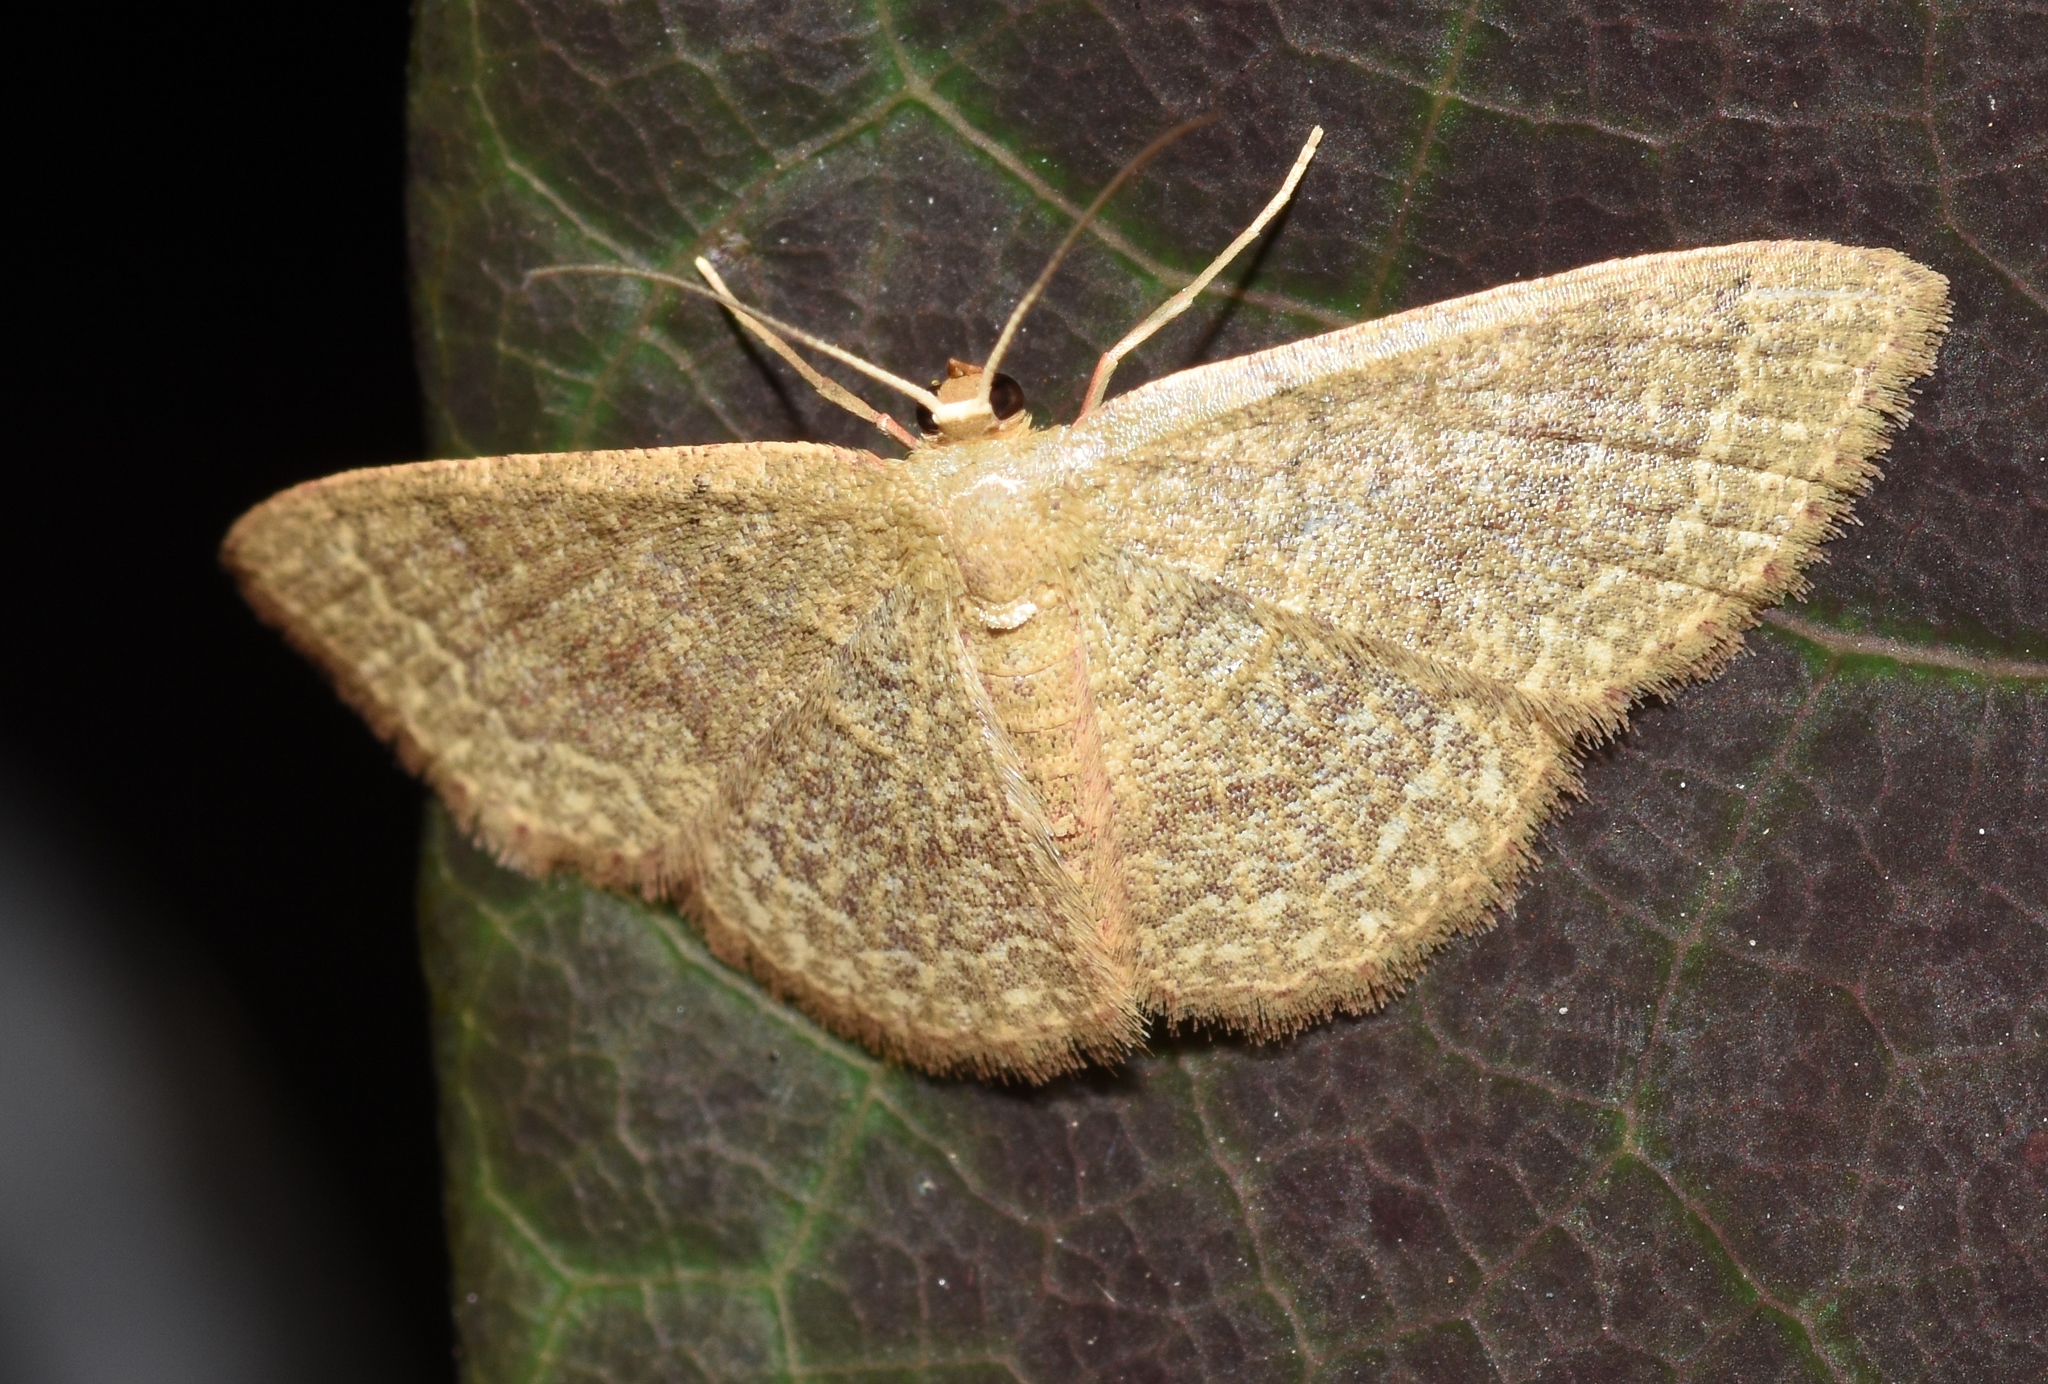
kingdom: Animalia
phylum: Arthropoda
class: Insecta
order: Lepidoptera
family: Geometridae
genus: Pleuroprucha
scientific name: Pleuroprucha insulsaria
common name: Common tan wave
